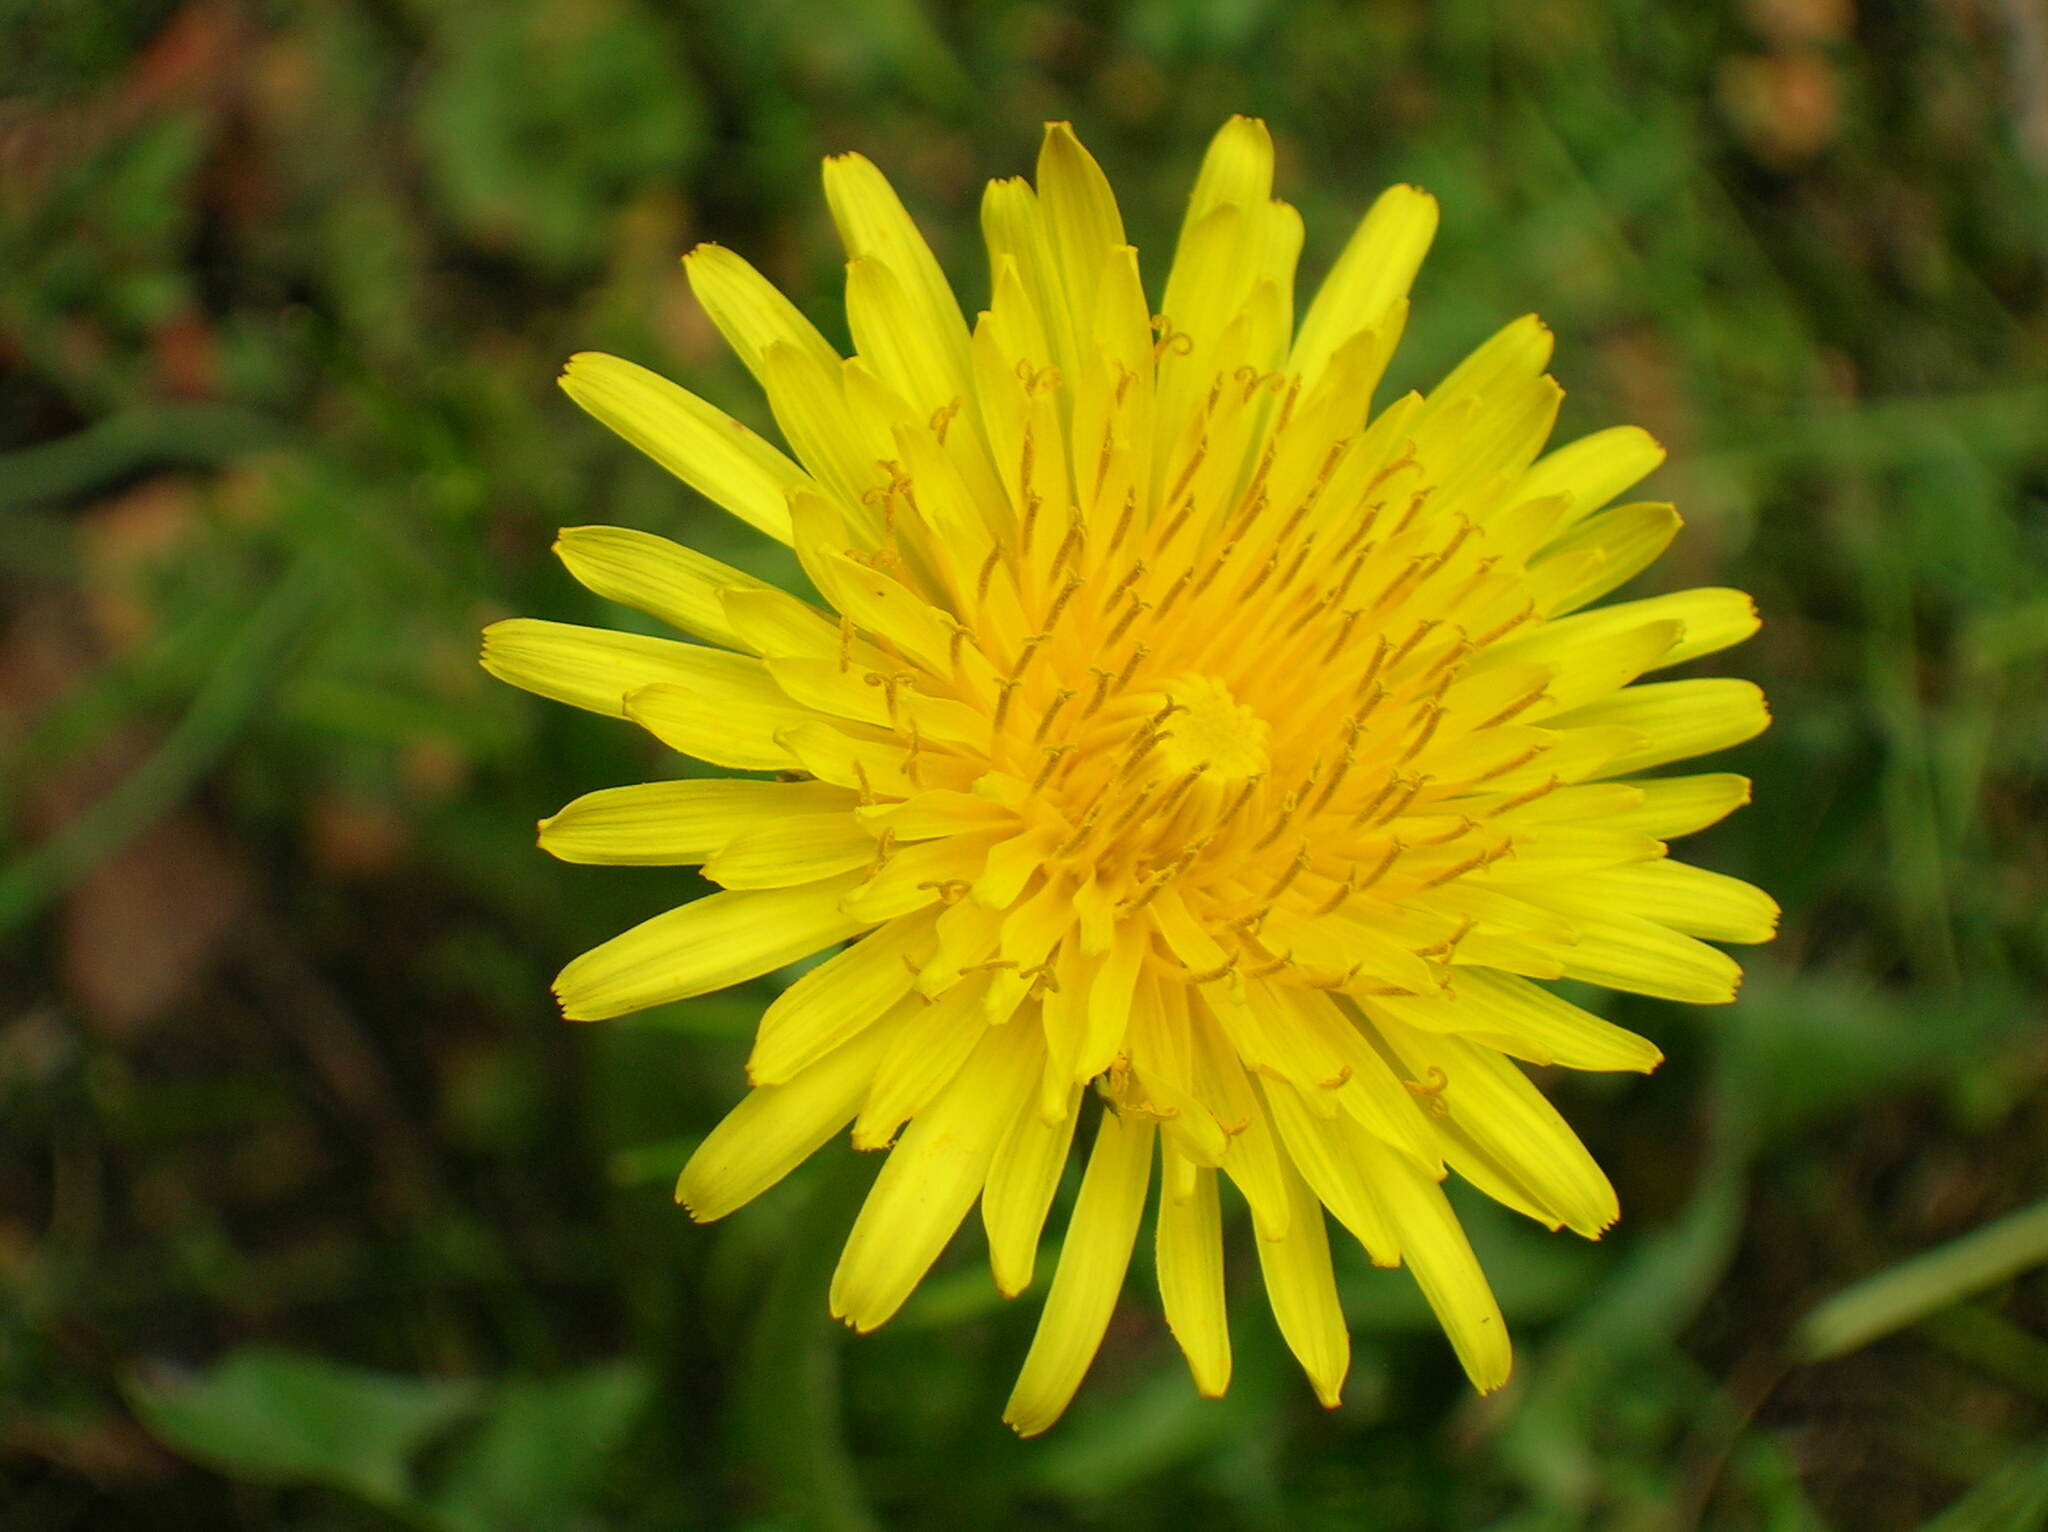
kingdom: Plantae
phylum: Tracheophyta
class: Magnoliopsida
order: Asterales
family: Asteraceae
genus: Taraxacum
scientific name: Taraxacum officinale
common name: Common dandelion
